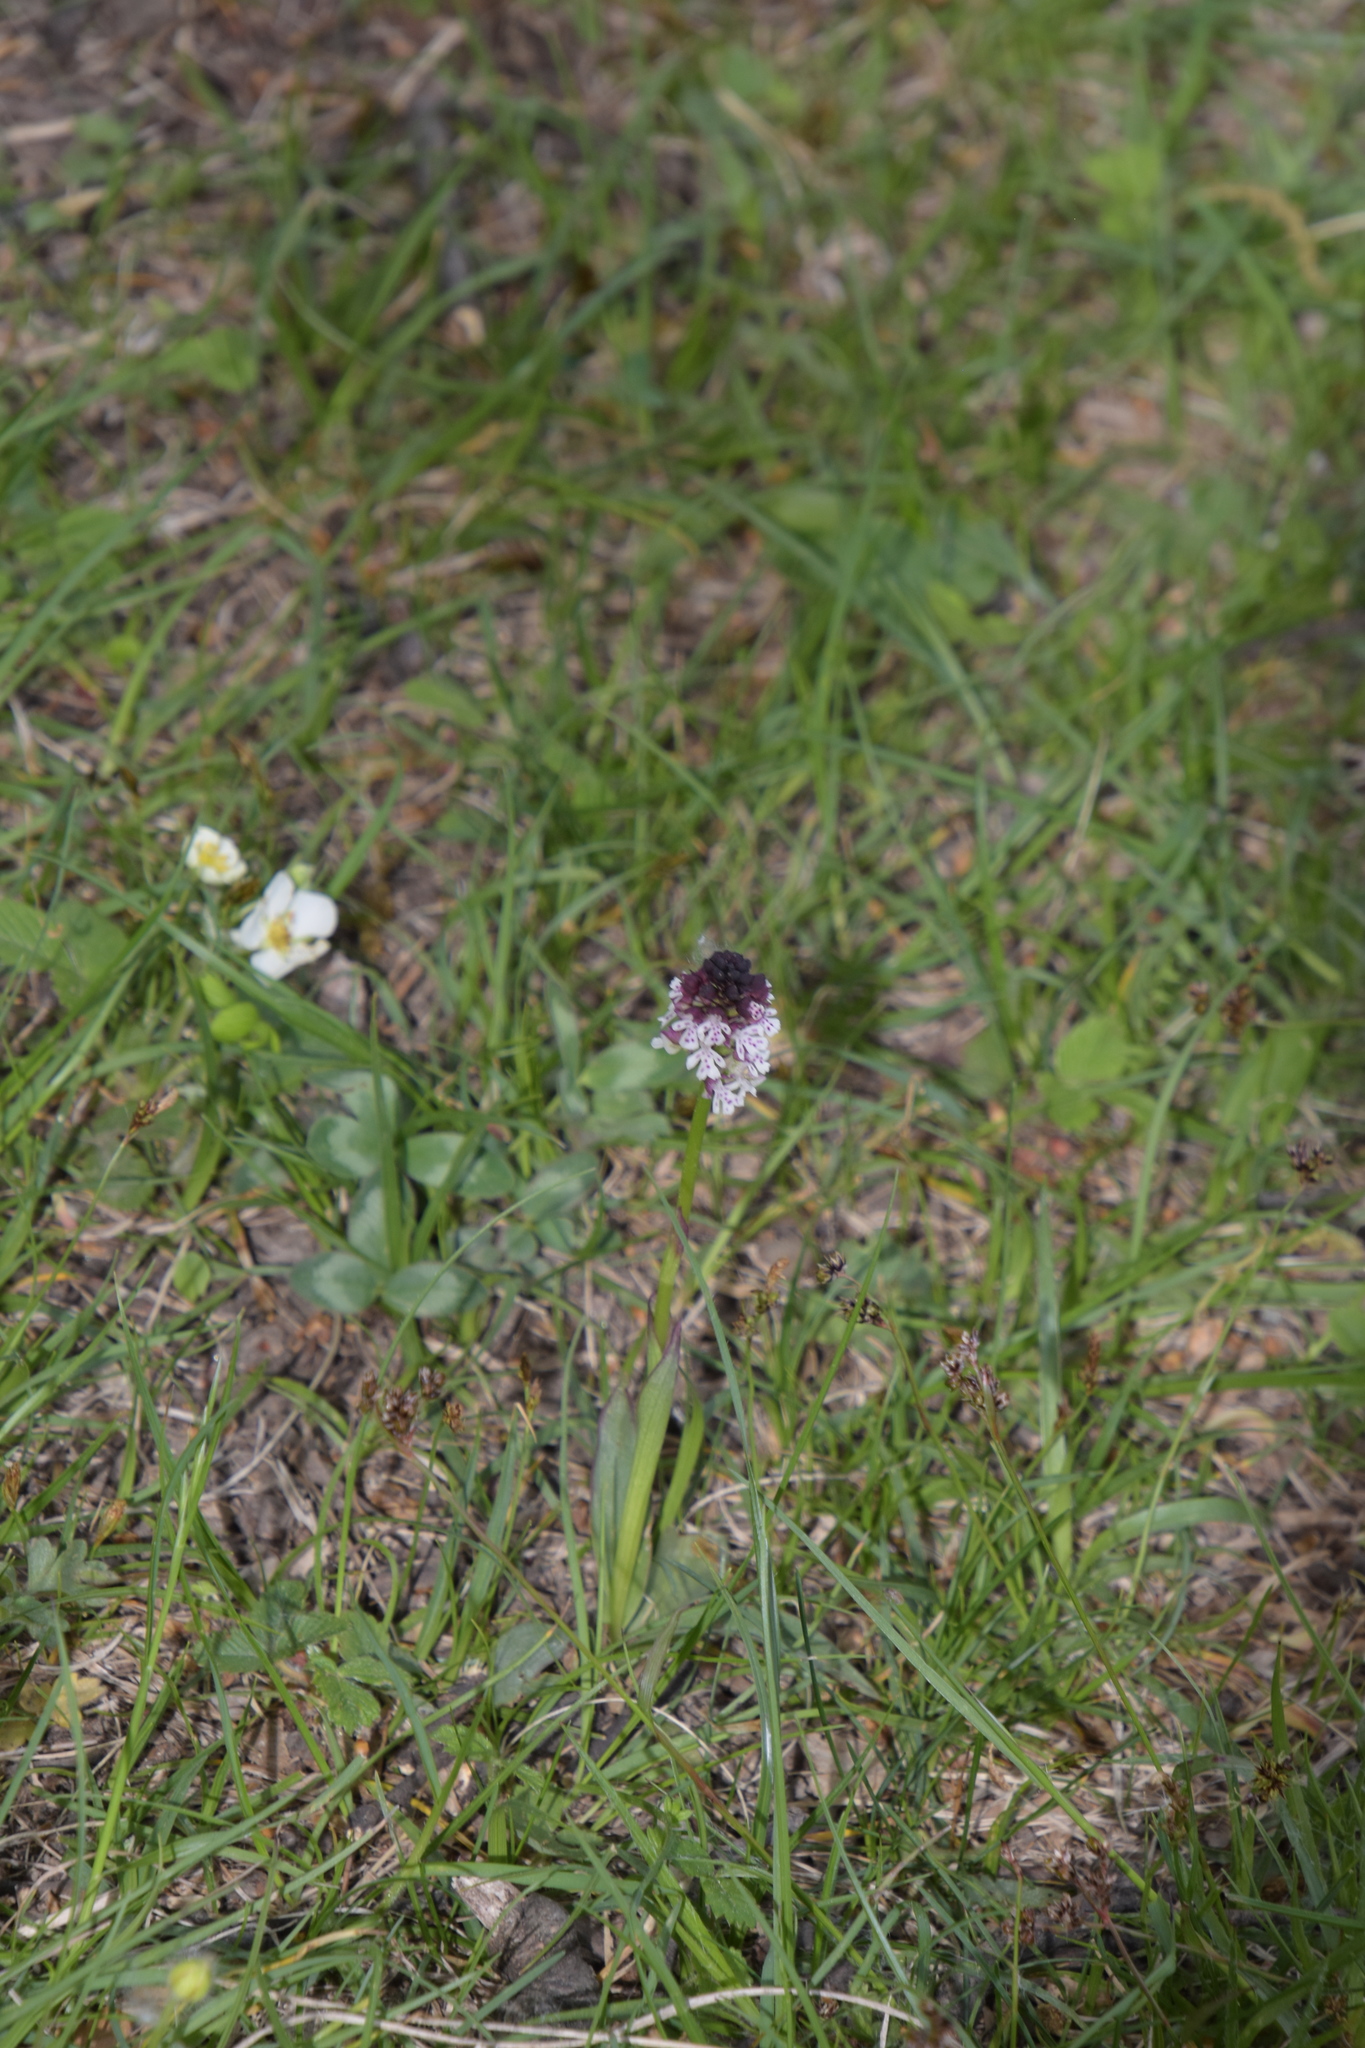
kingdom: Plantae
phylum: Tracheophyta
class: Liliopsida
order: Asparagales
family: Orchidaceae
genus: Neotinea
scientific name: Neotinea ustulata
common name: Burnt orchid
